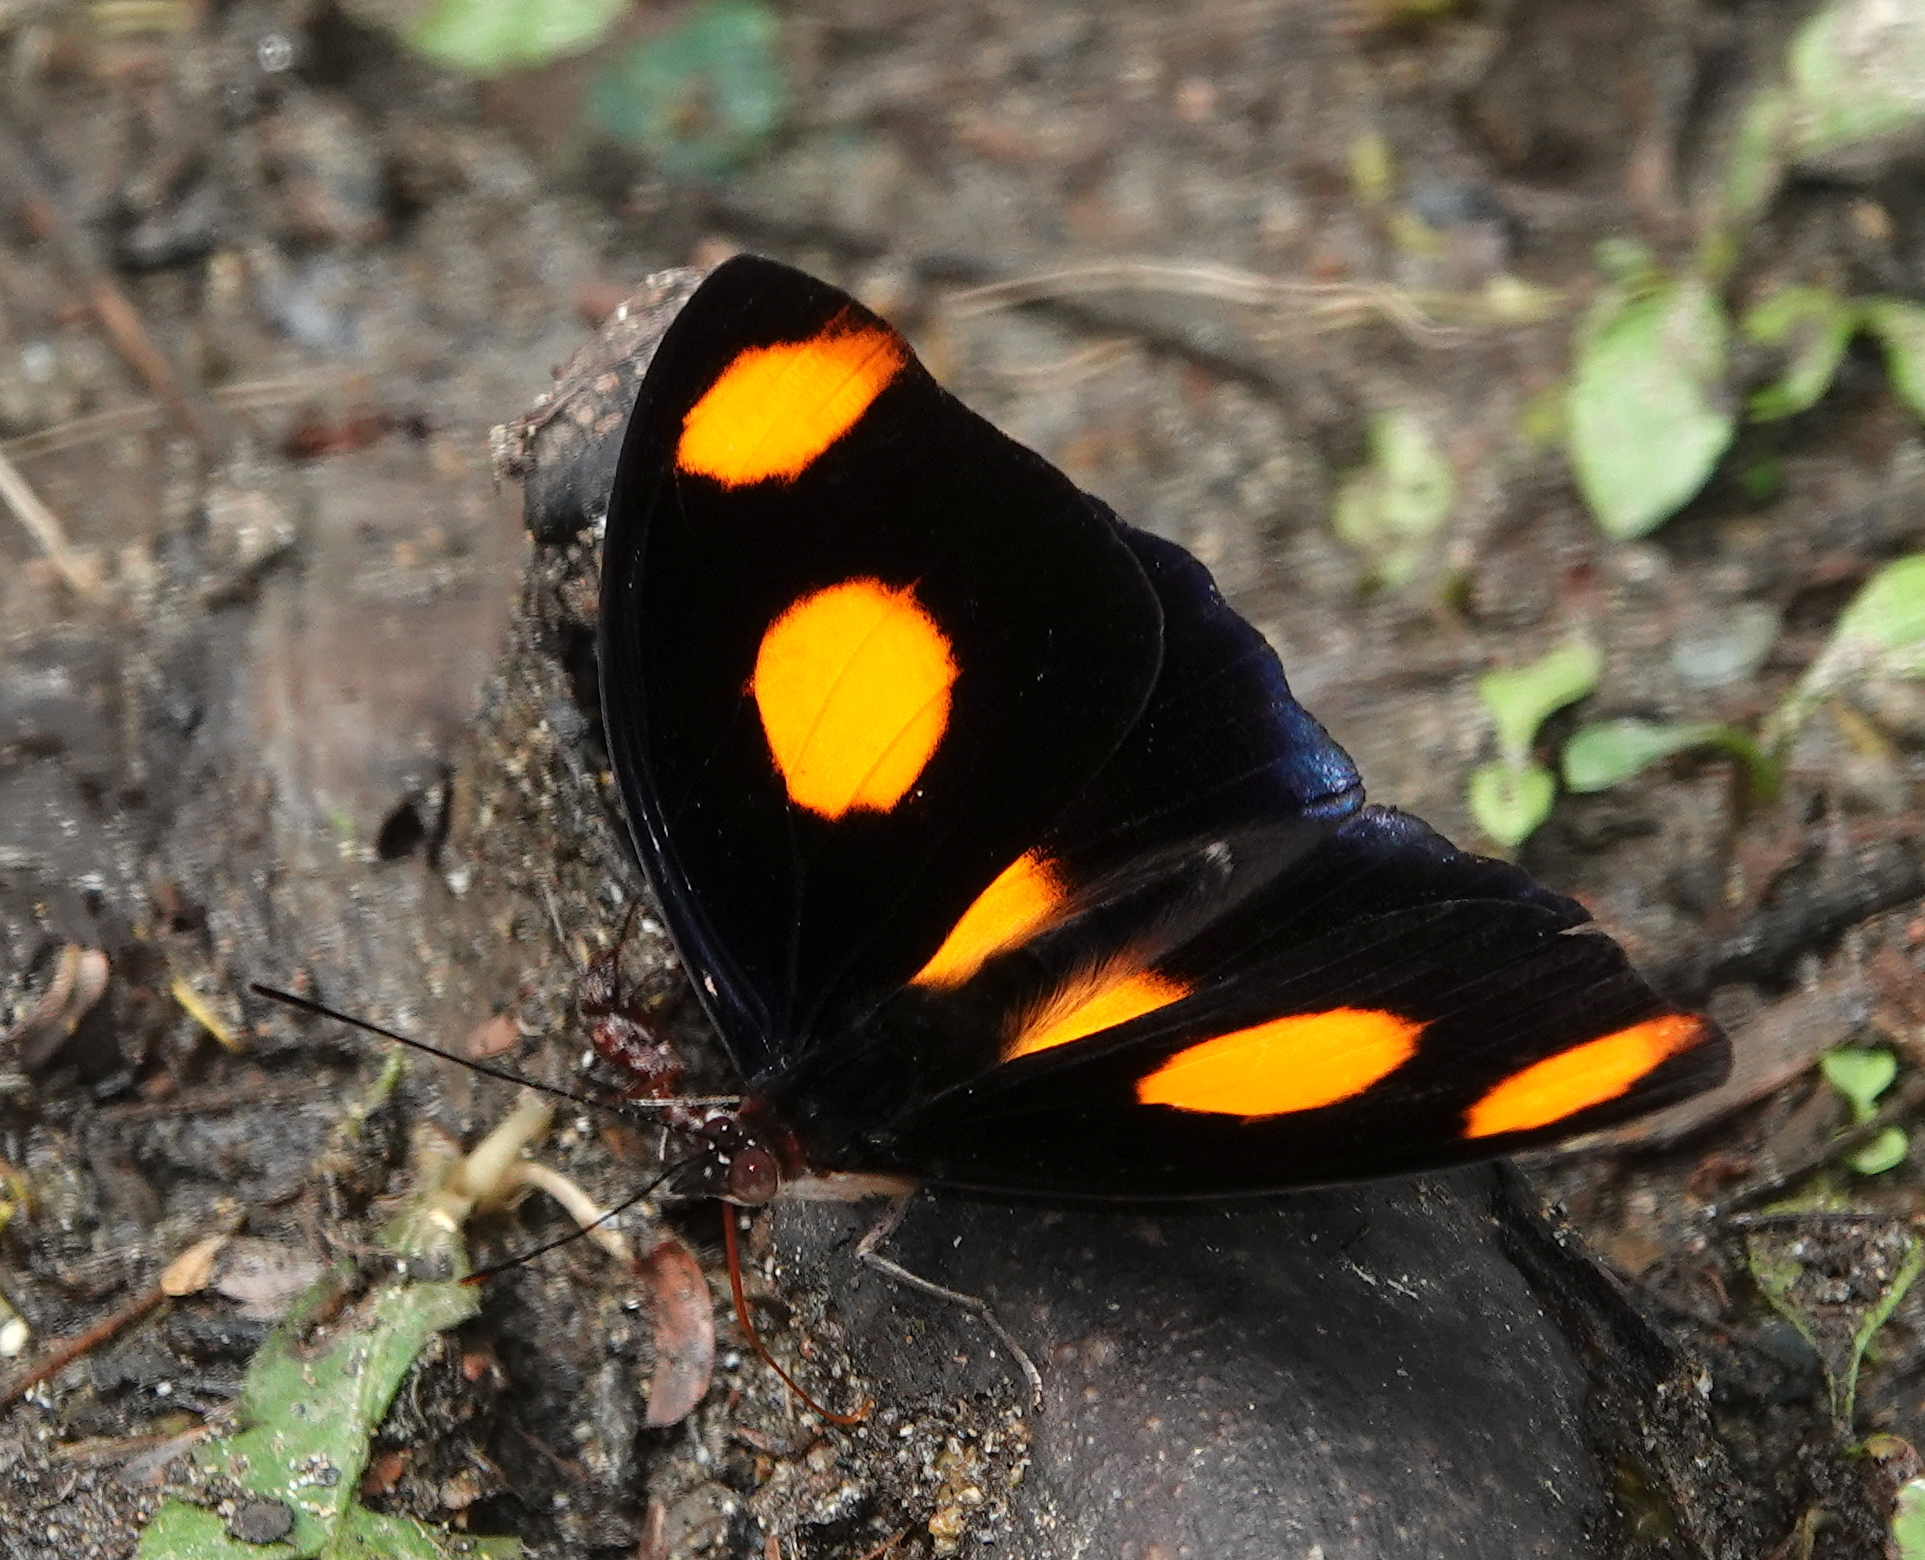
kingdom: Animalia
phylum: Arthropoda
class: Insecta
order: Lepidoptera
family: Nymphalidae
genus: Catonephele
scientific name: Catonephele numilia
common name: Blue-frosted banner
